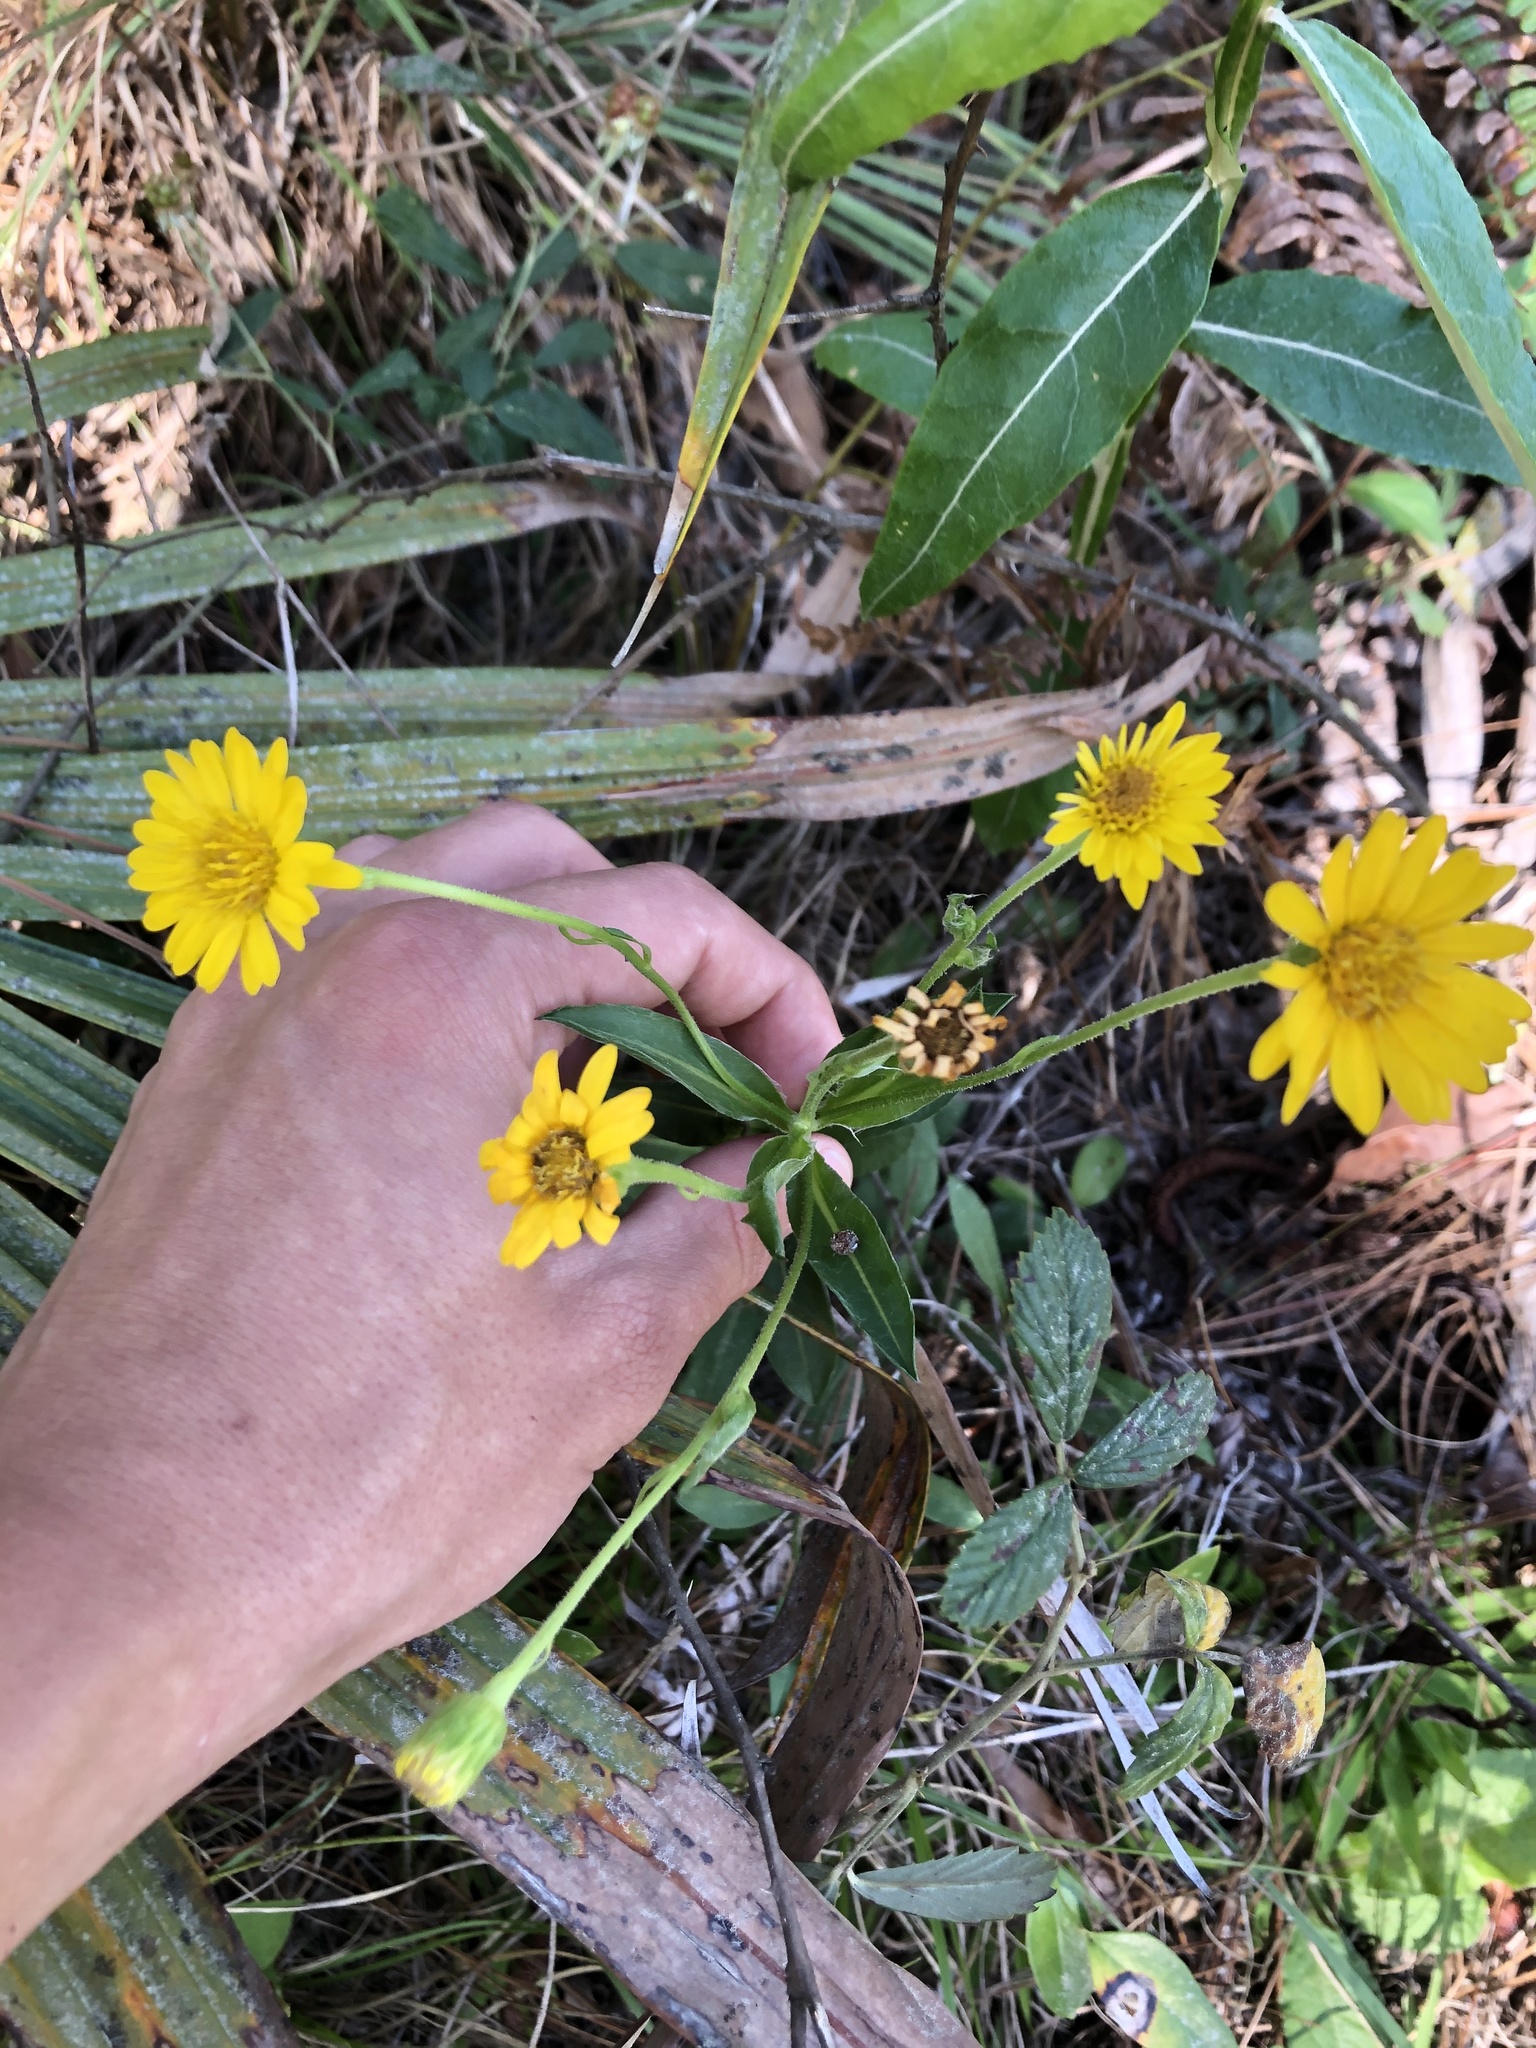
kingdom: Plantae
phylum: Tracheophyta
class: Magnoliopsida
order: Asterales
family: Asteraceae
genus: Chrysopsis
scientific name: Chrysopsis mariana
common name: Maryland golden-aster
